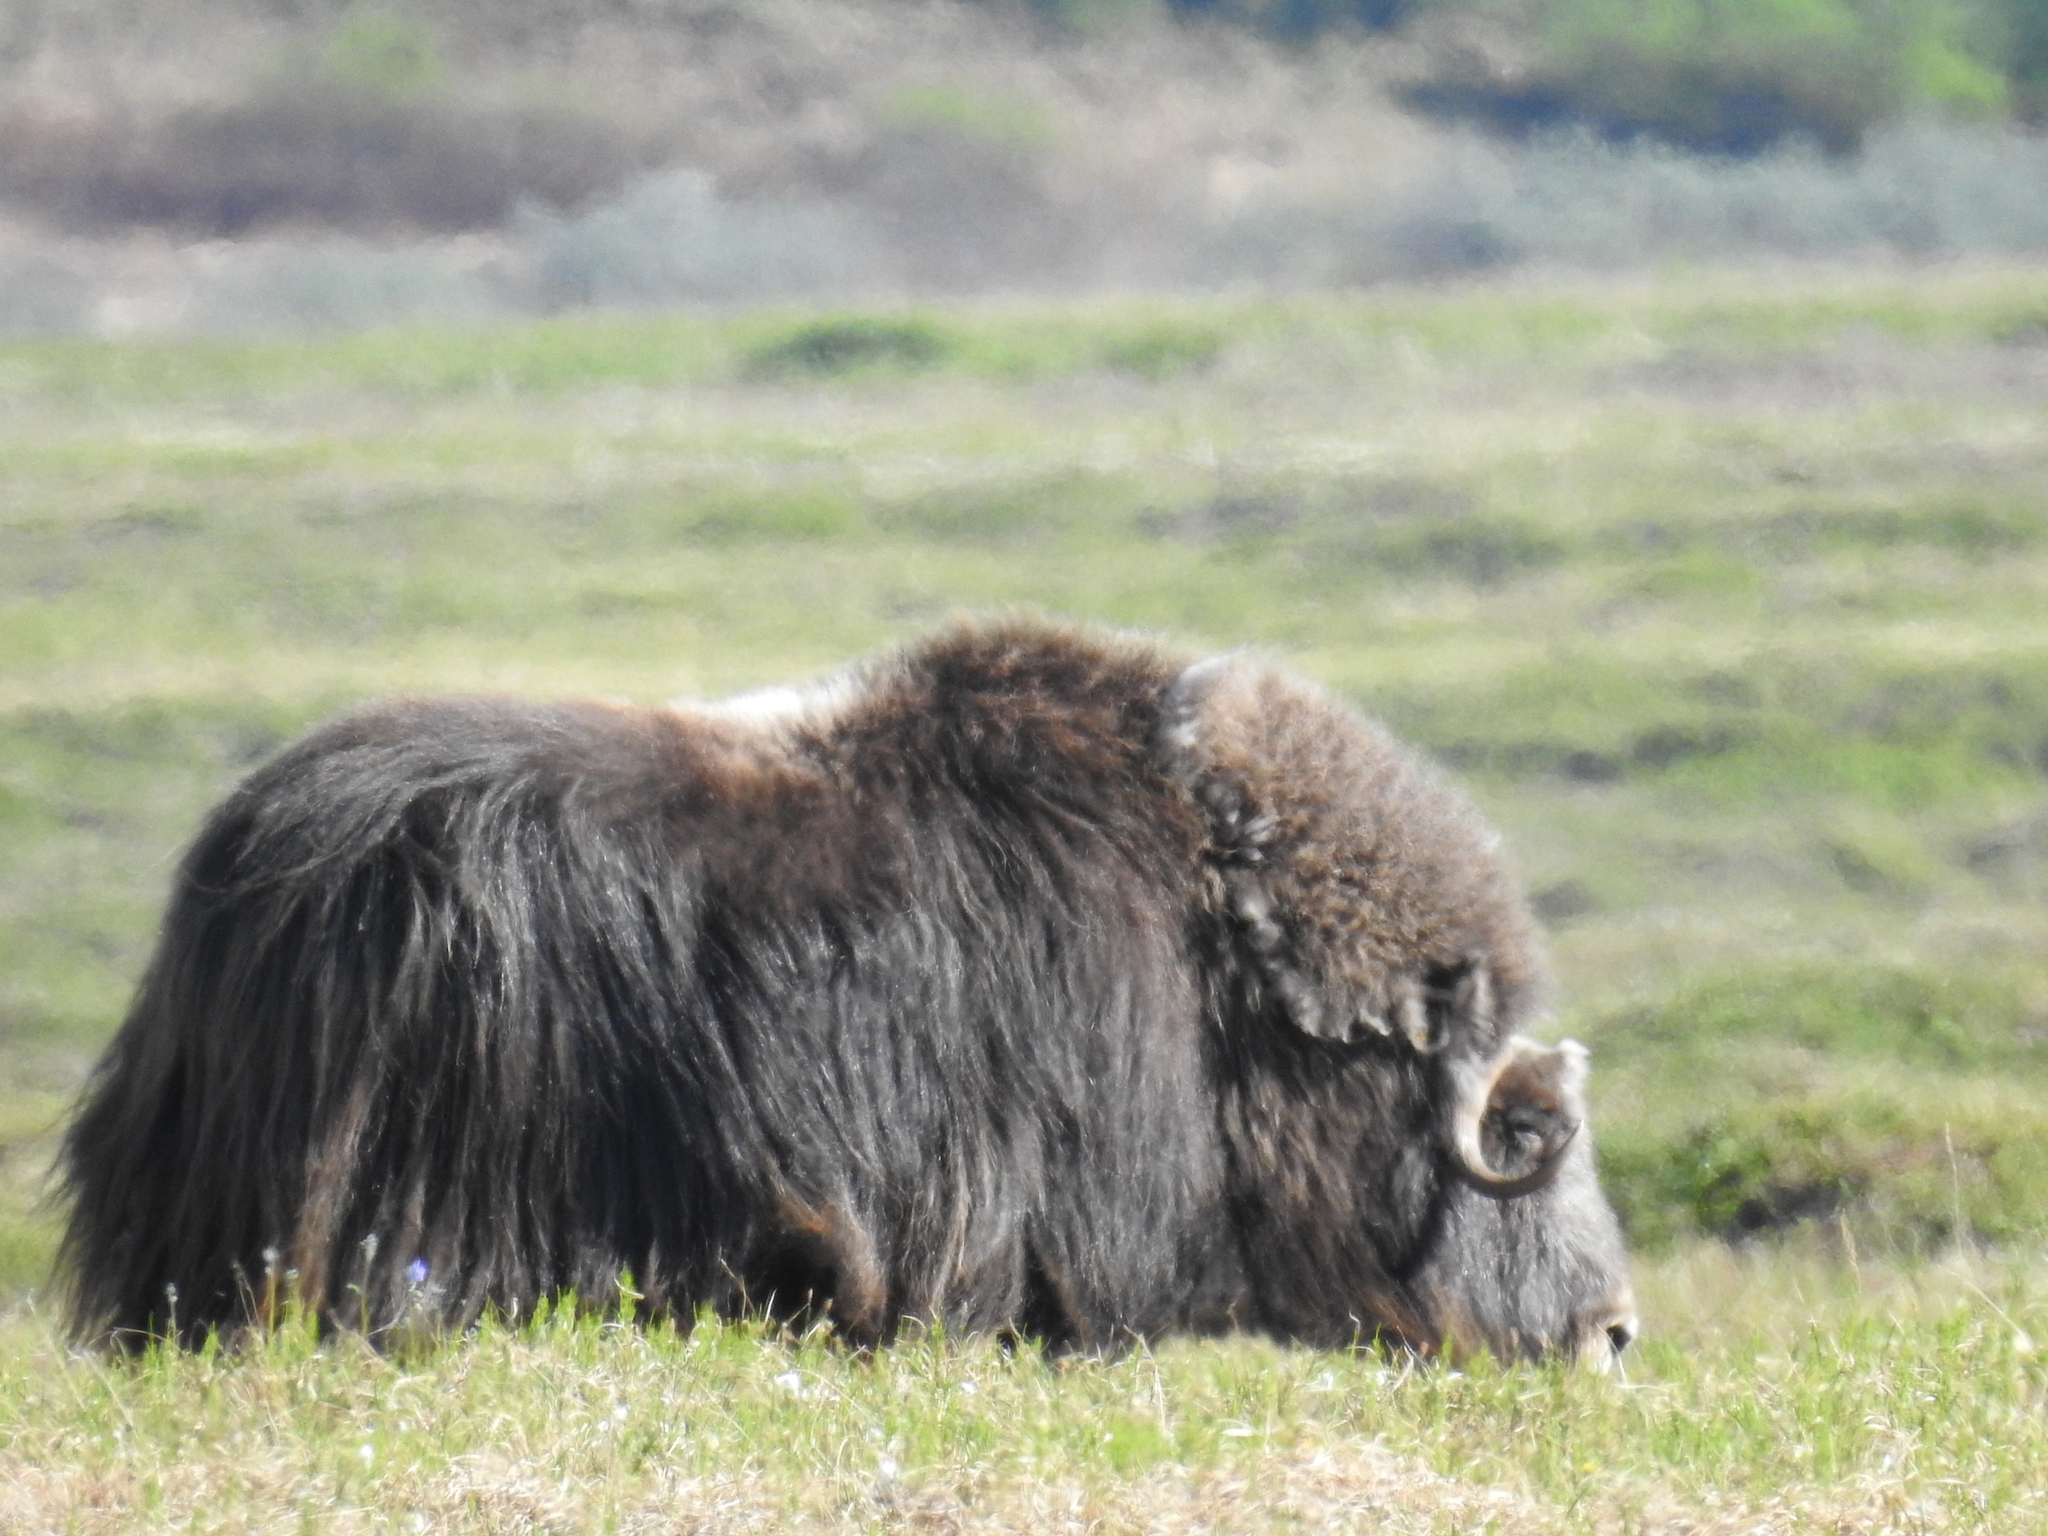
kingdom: Animalia
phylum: Chordata
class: Mammalia
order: Artiodactyla
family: Bovidae
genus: Ovibos
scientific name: Ovibos moschatus
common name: Muskox
